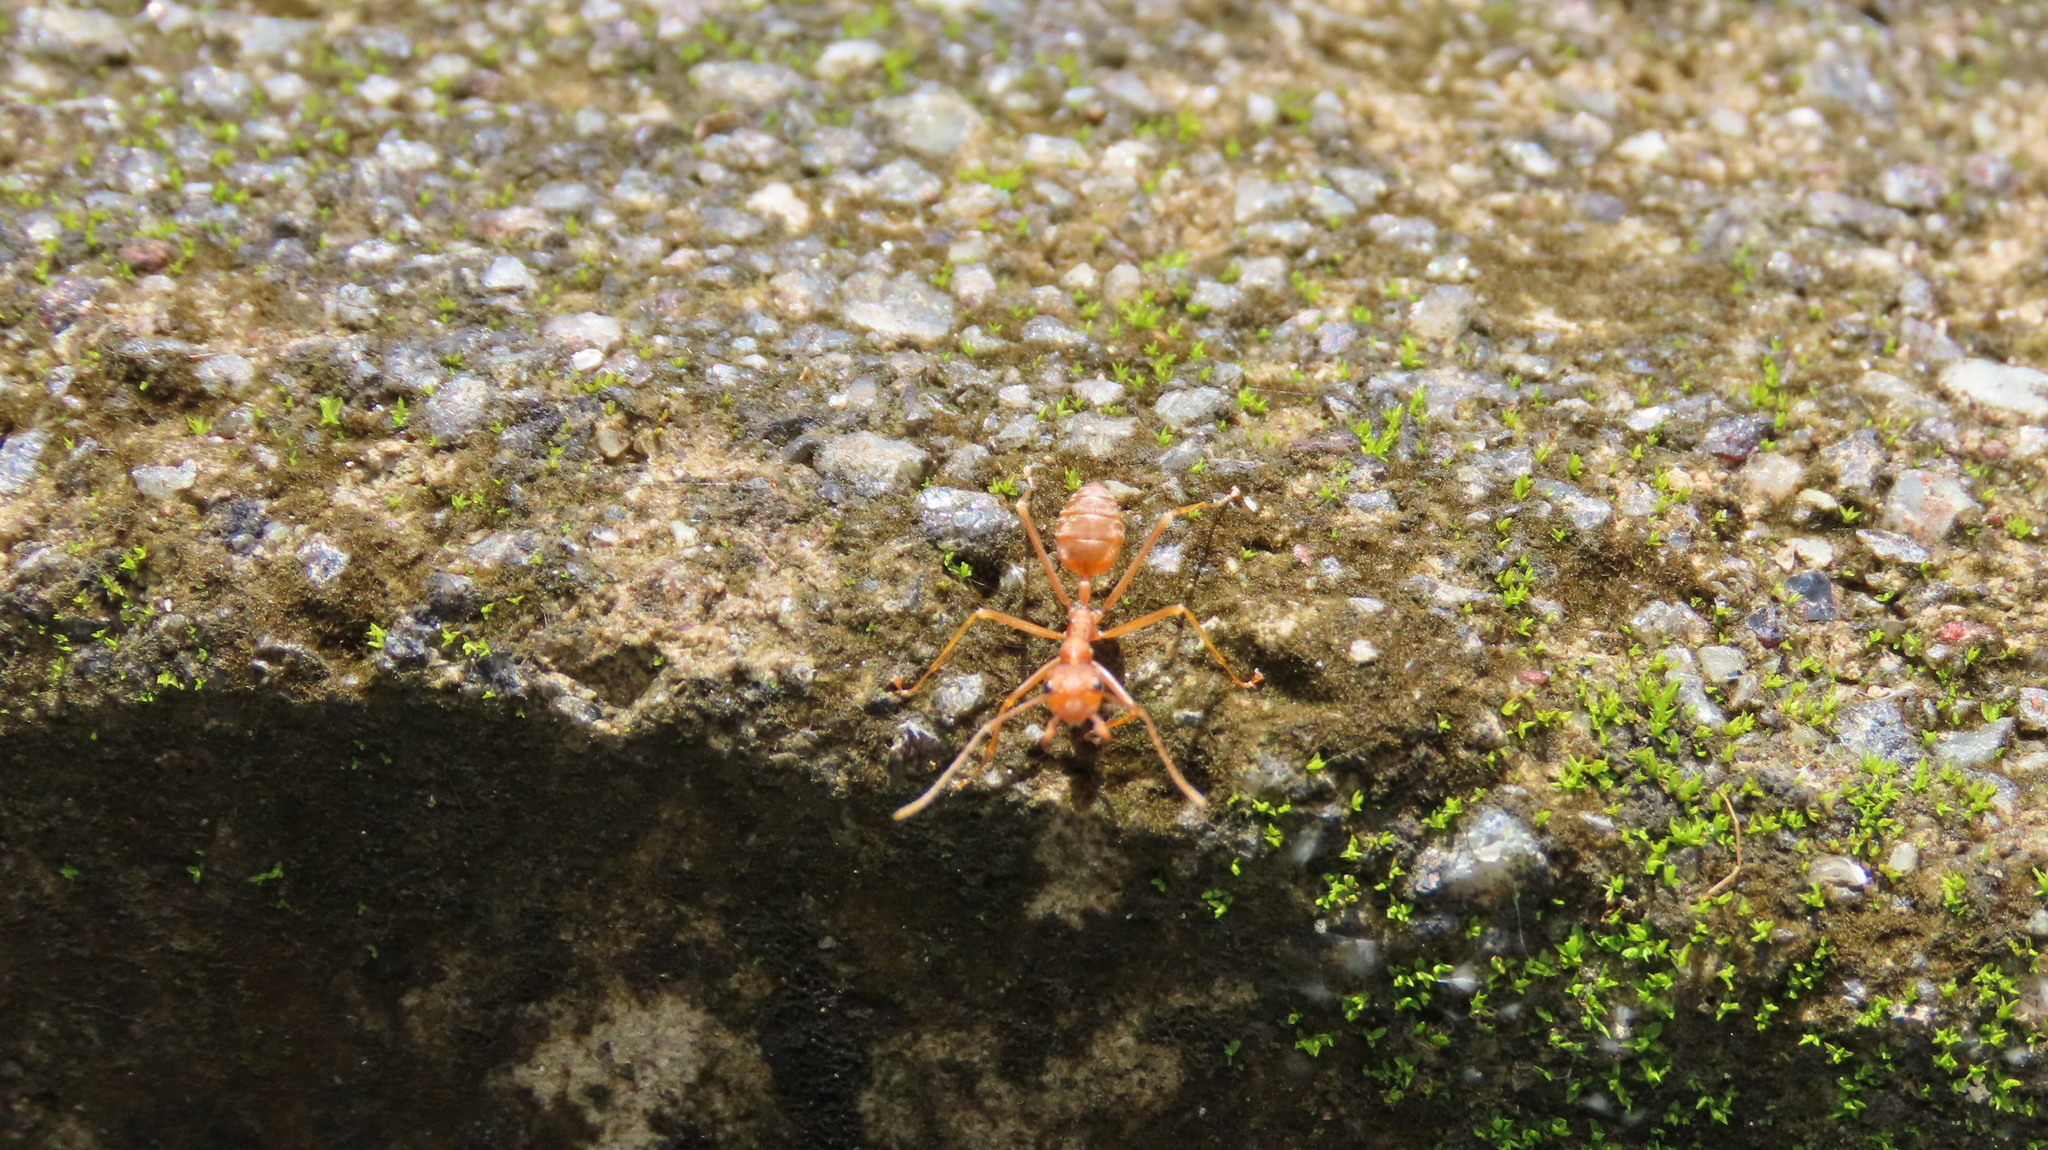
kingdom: Animalia
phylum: Arthropoda
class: Insecta
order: Hymenoptera
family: Formicidae
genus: Oecophylla
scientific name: Oecophylla smaragdina
